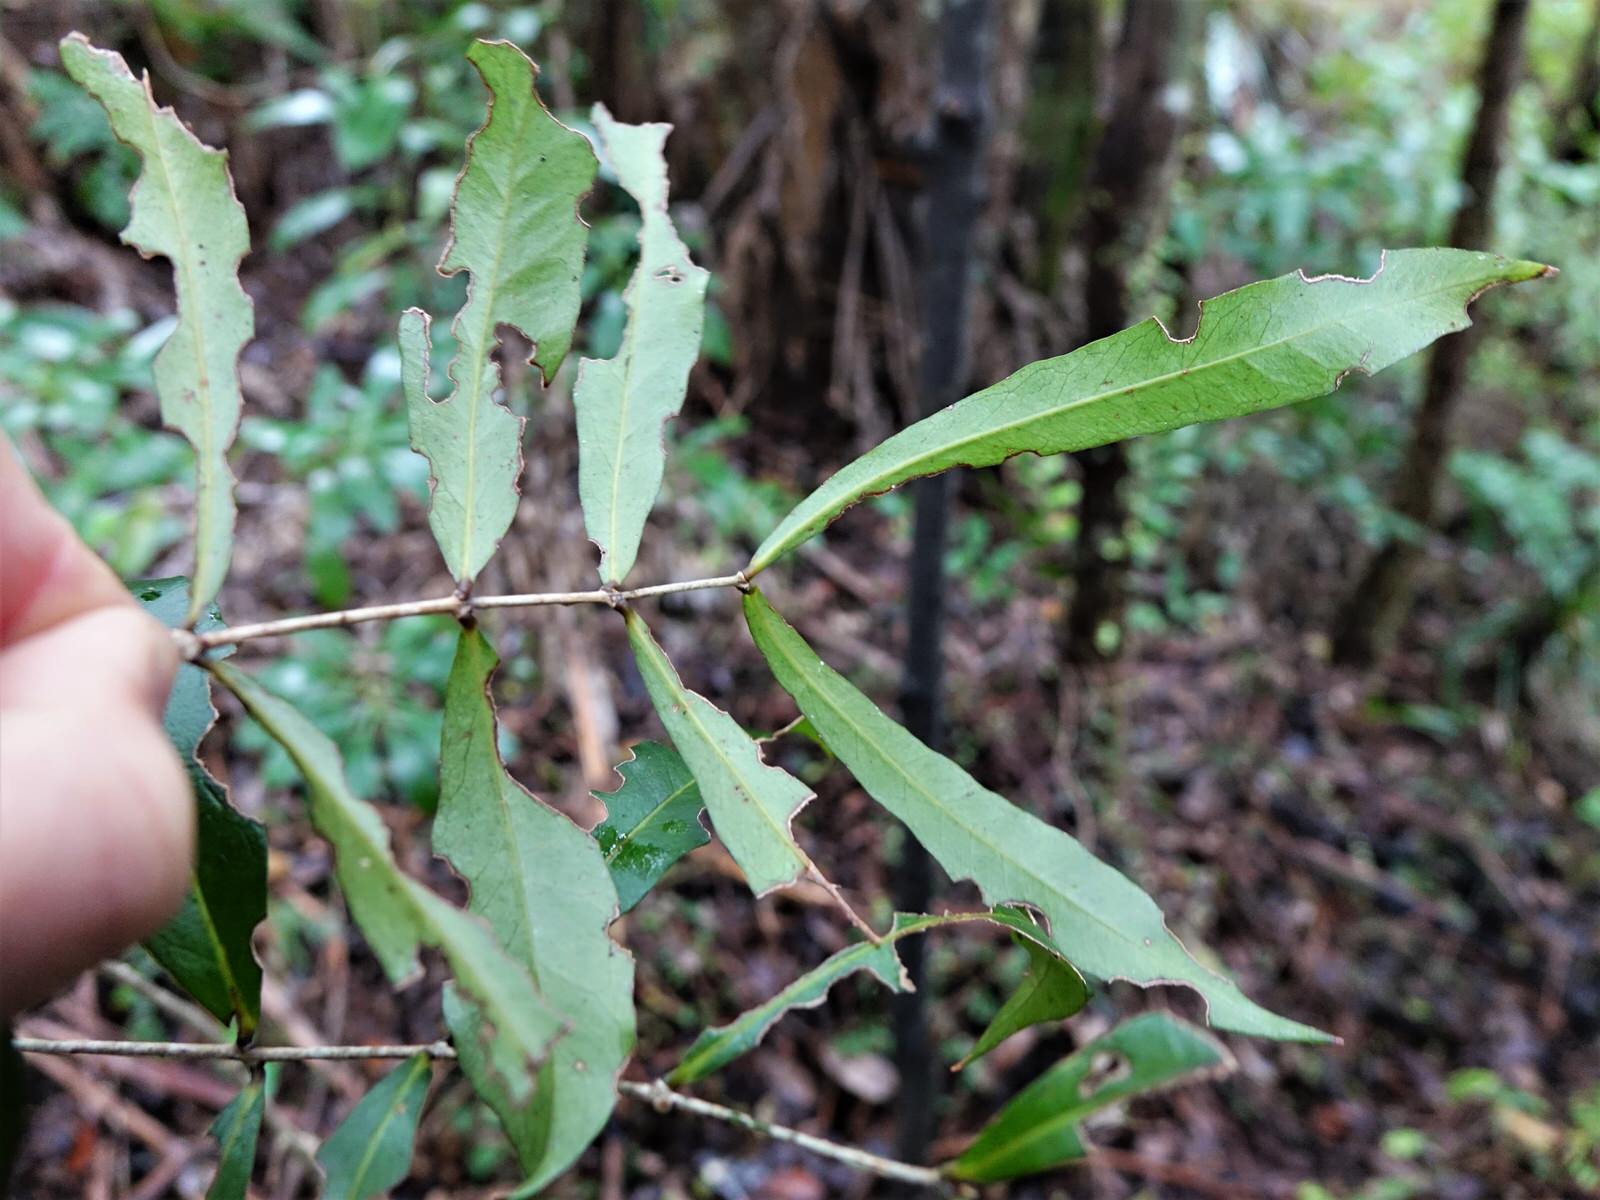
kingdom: Plantae
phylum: Tracheophyta
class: Magnoliopsida
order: Santalales
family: Nanodeaceae
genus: Mida
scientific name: Mida salicifolia
